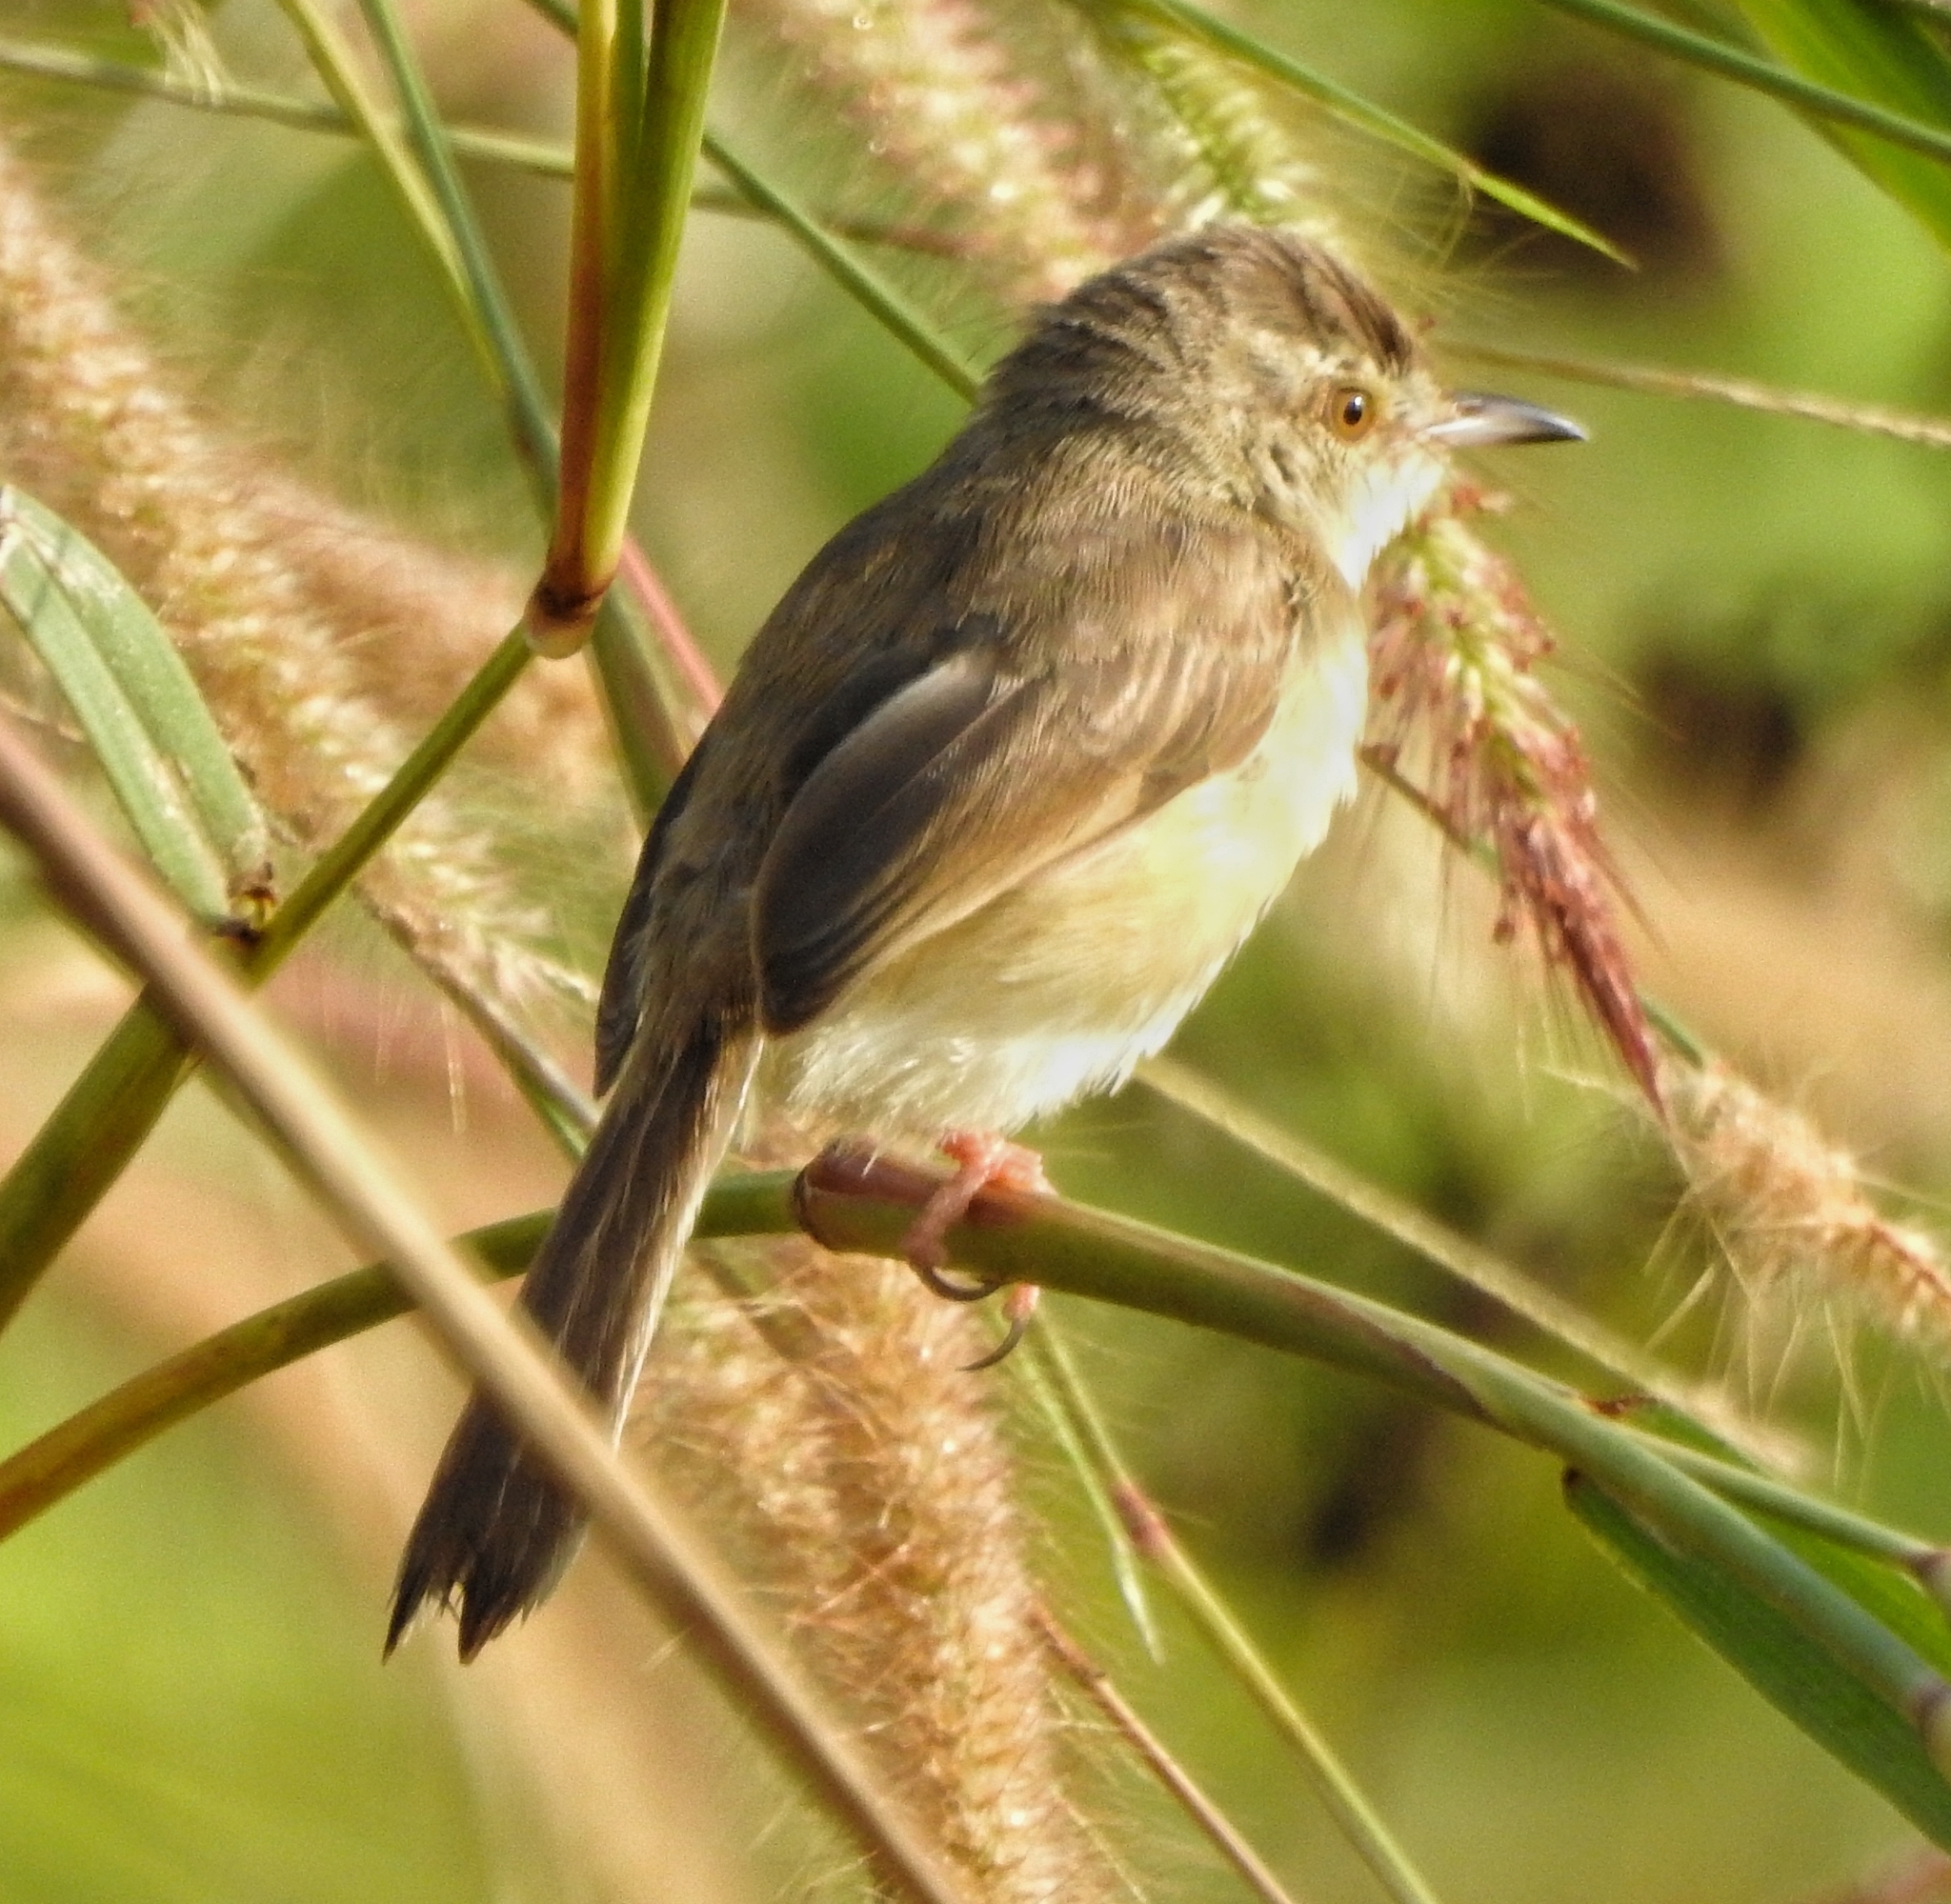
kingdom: Animalia
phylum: Chordata
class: Aves
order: Passeriformes
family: Cisticolidae
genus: Prinia
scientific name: Prinia inornata
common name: Plain prinia
